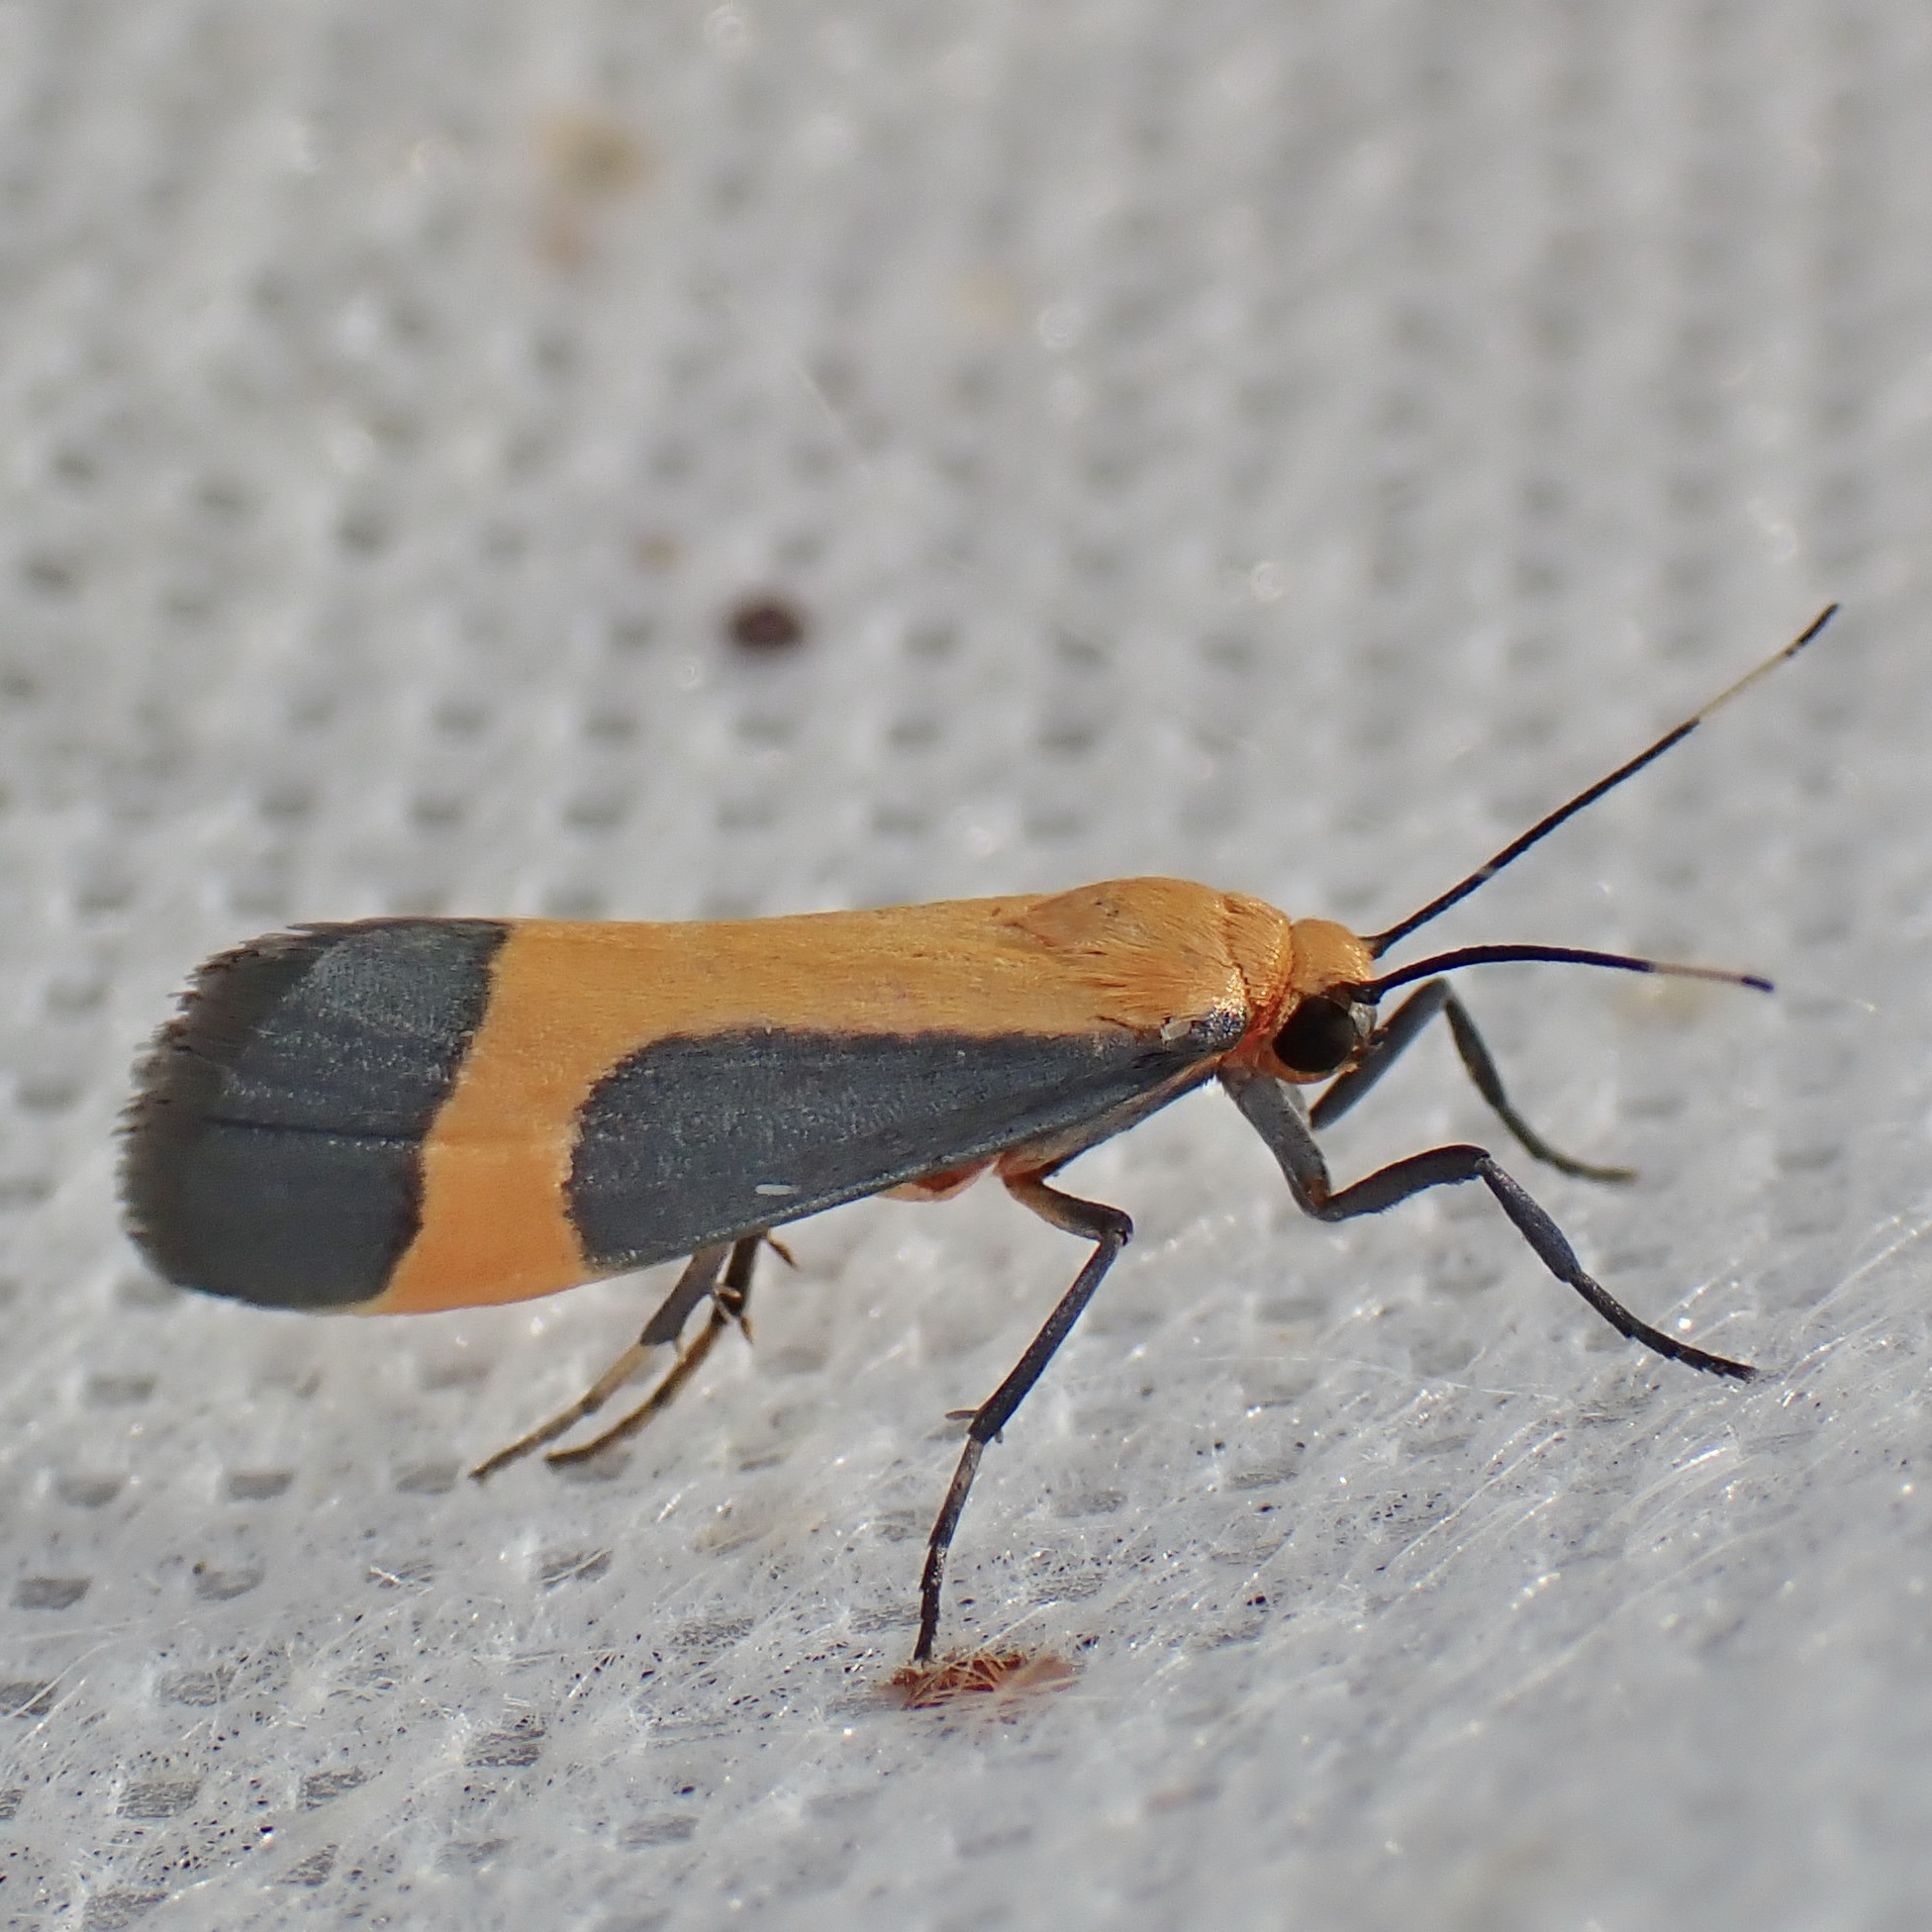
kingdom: Animalia
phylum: Arthropoda
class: Insecta
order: Lepidoptera
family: Erebidae
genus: Cisthene
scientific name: Cisthene angelus
